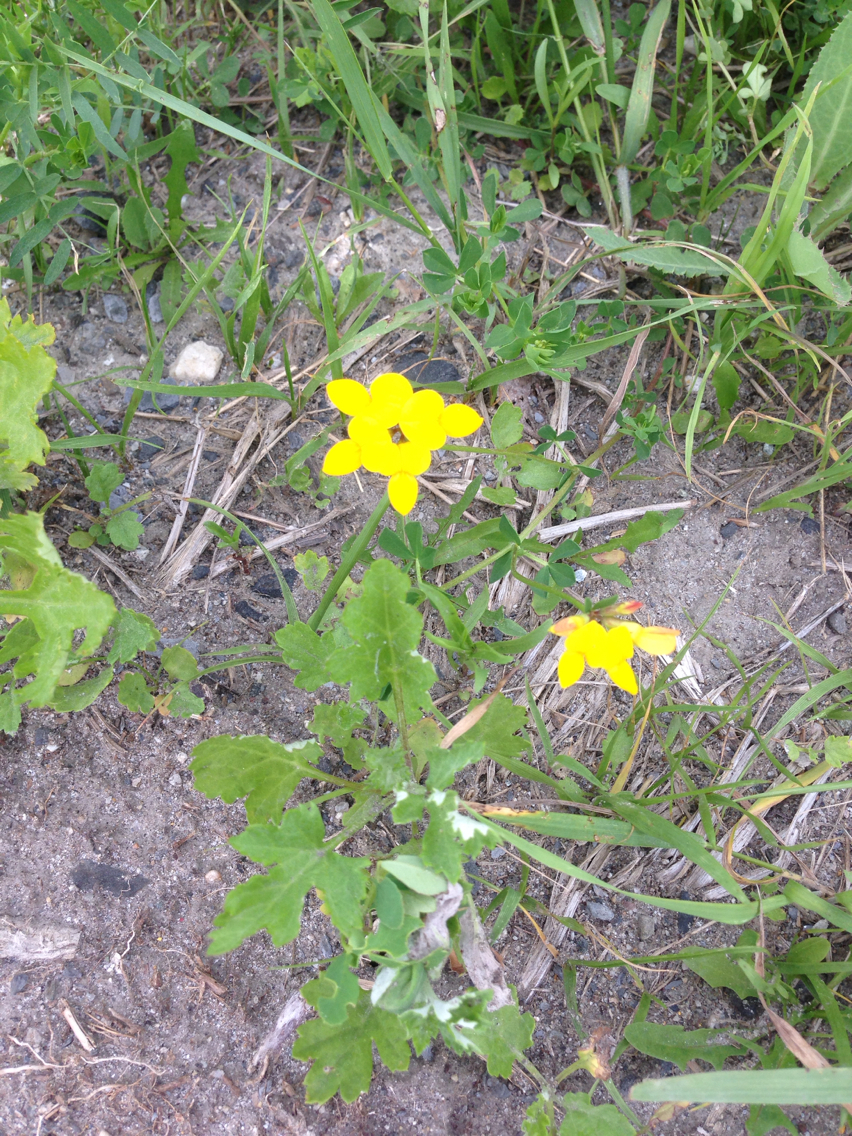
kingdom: Plantae
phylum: Tracheophyta
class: Magnoliopsida
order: Fabales
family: Fabaceae
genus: Lotus
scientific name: Lotus corniculatus
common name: Common bird's-foot-trefoil
